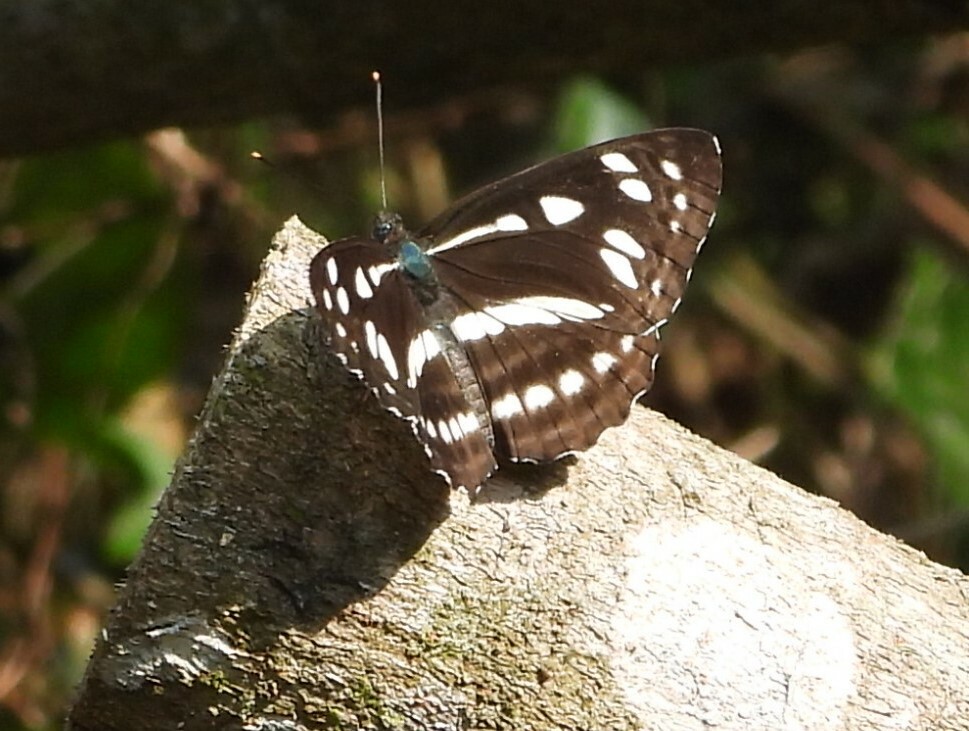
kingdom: Animalia
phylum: Arthropoda
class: Insecta
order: Lepidoptera
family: Nymphalidae
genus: Phaedyma
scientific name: Phaedyma columella
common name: Short banded sailer
